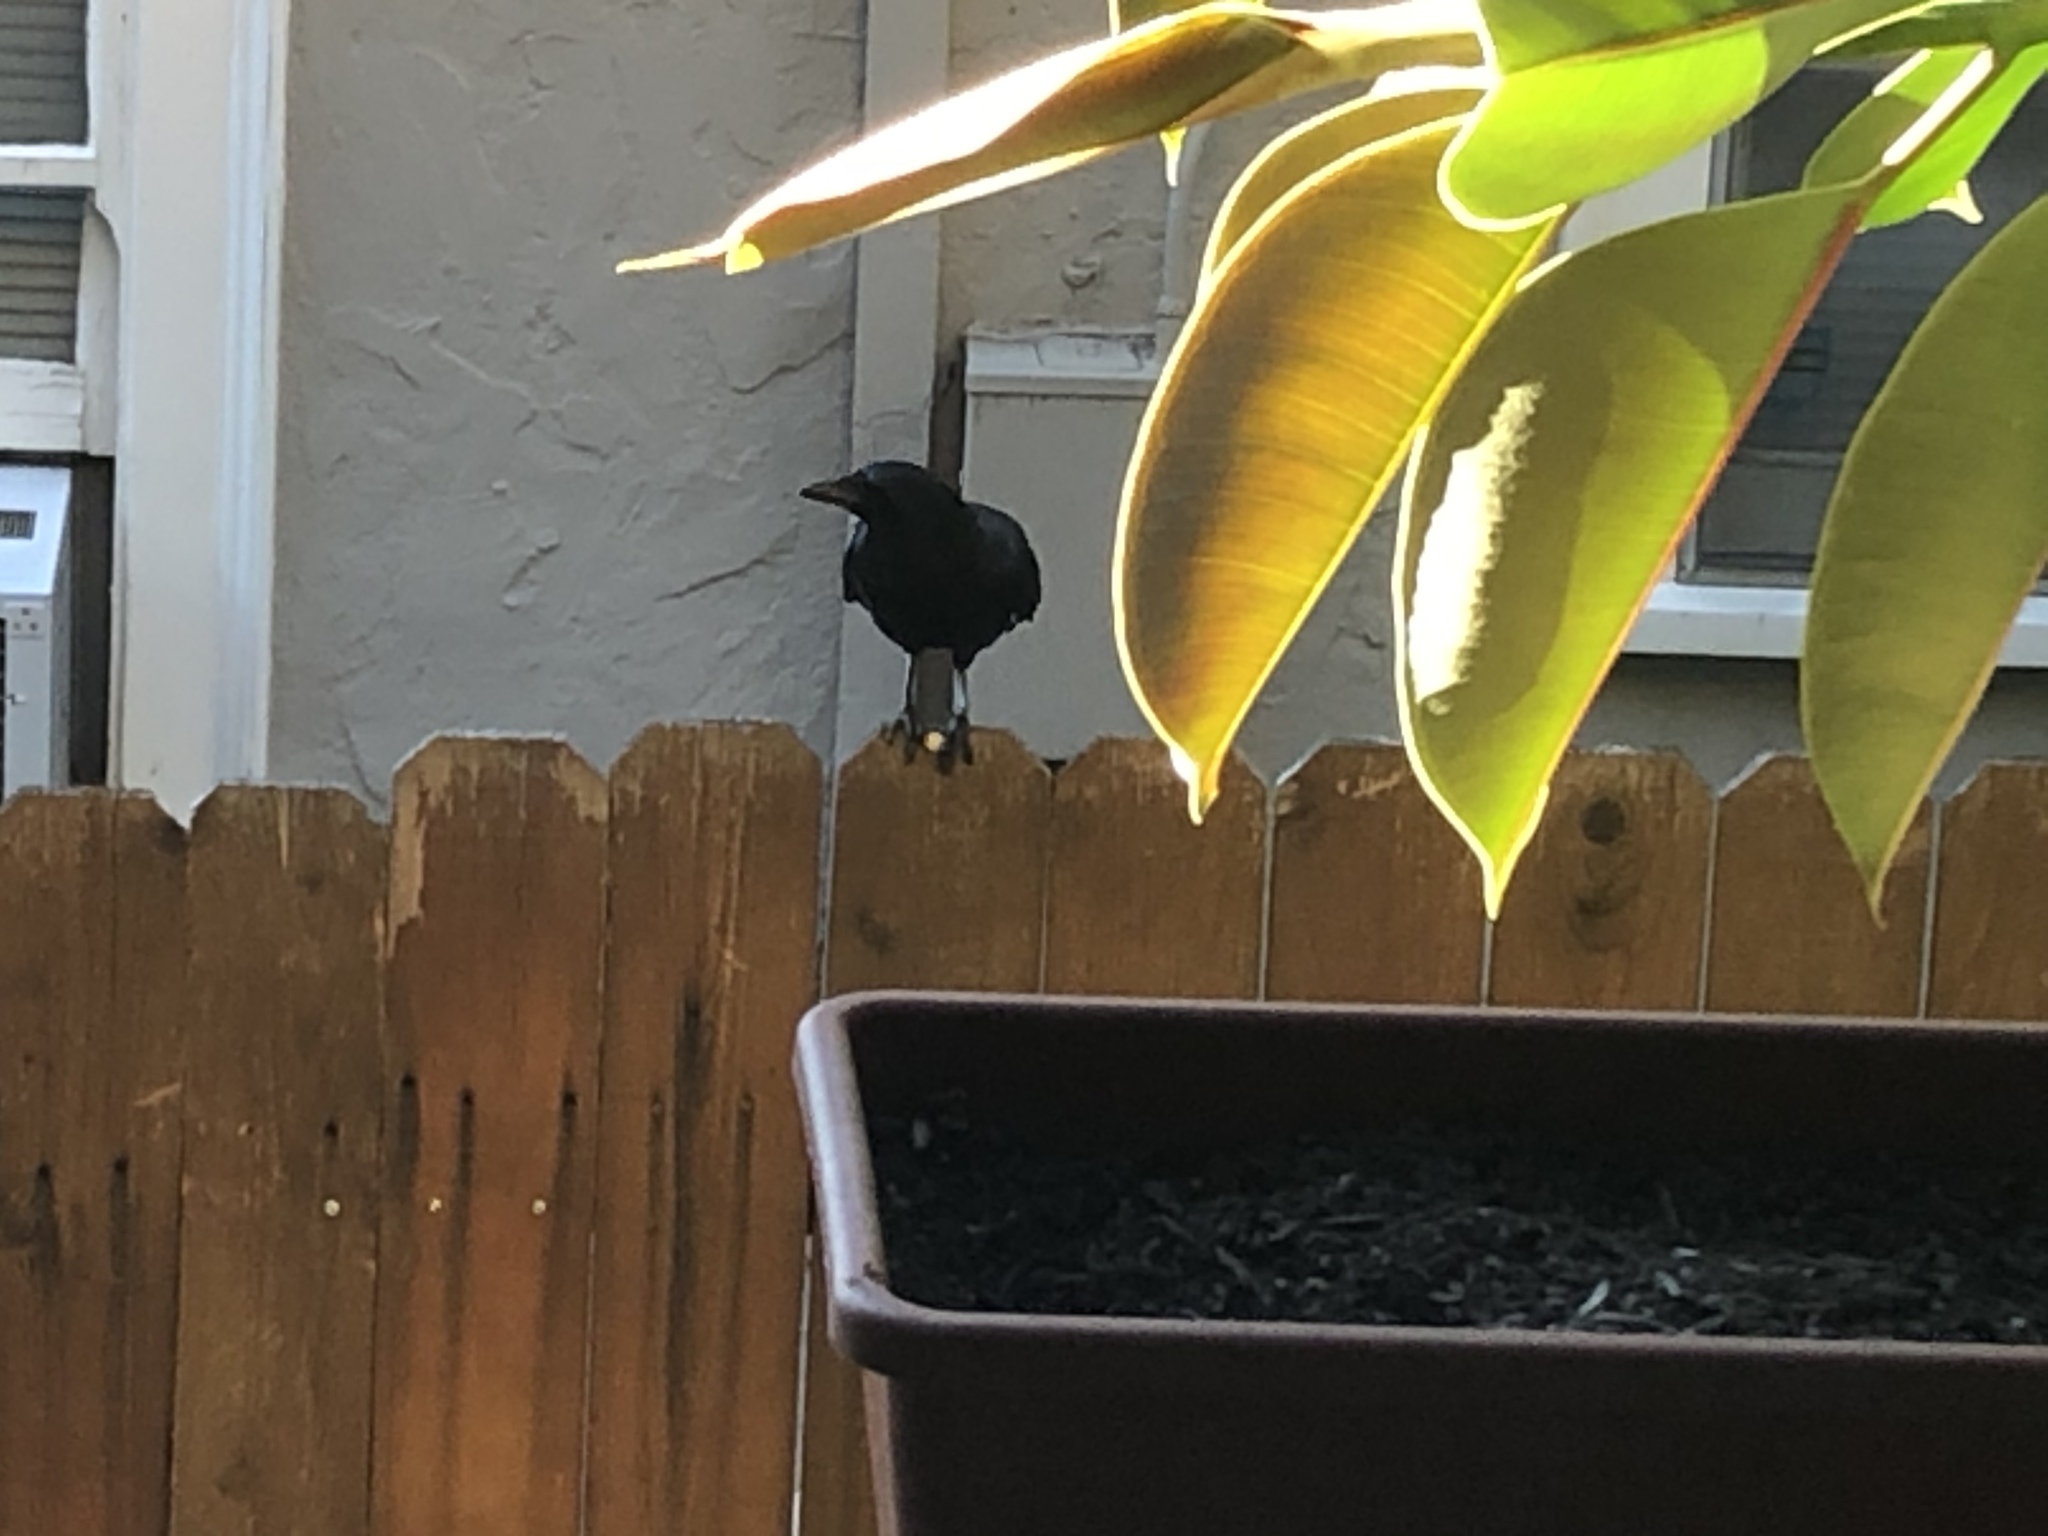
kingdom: Animalia
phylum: Chordata
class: Aves
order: Passeriformes
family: Corvidae
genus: Corvus
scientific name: Corvus brachyrhynchos
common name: American crow
